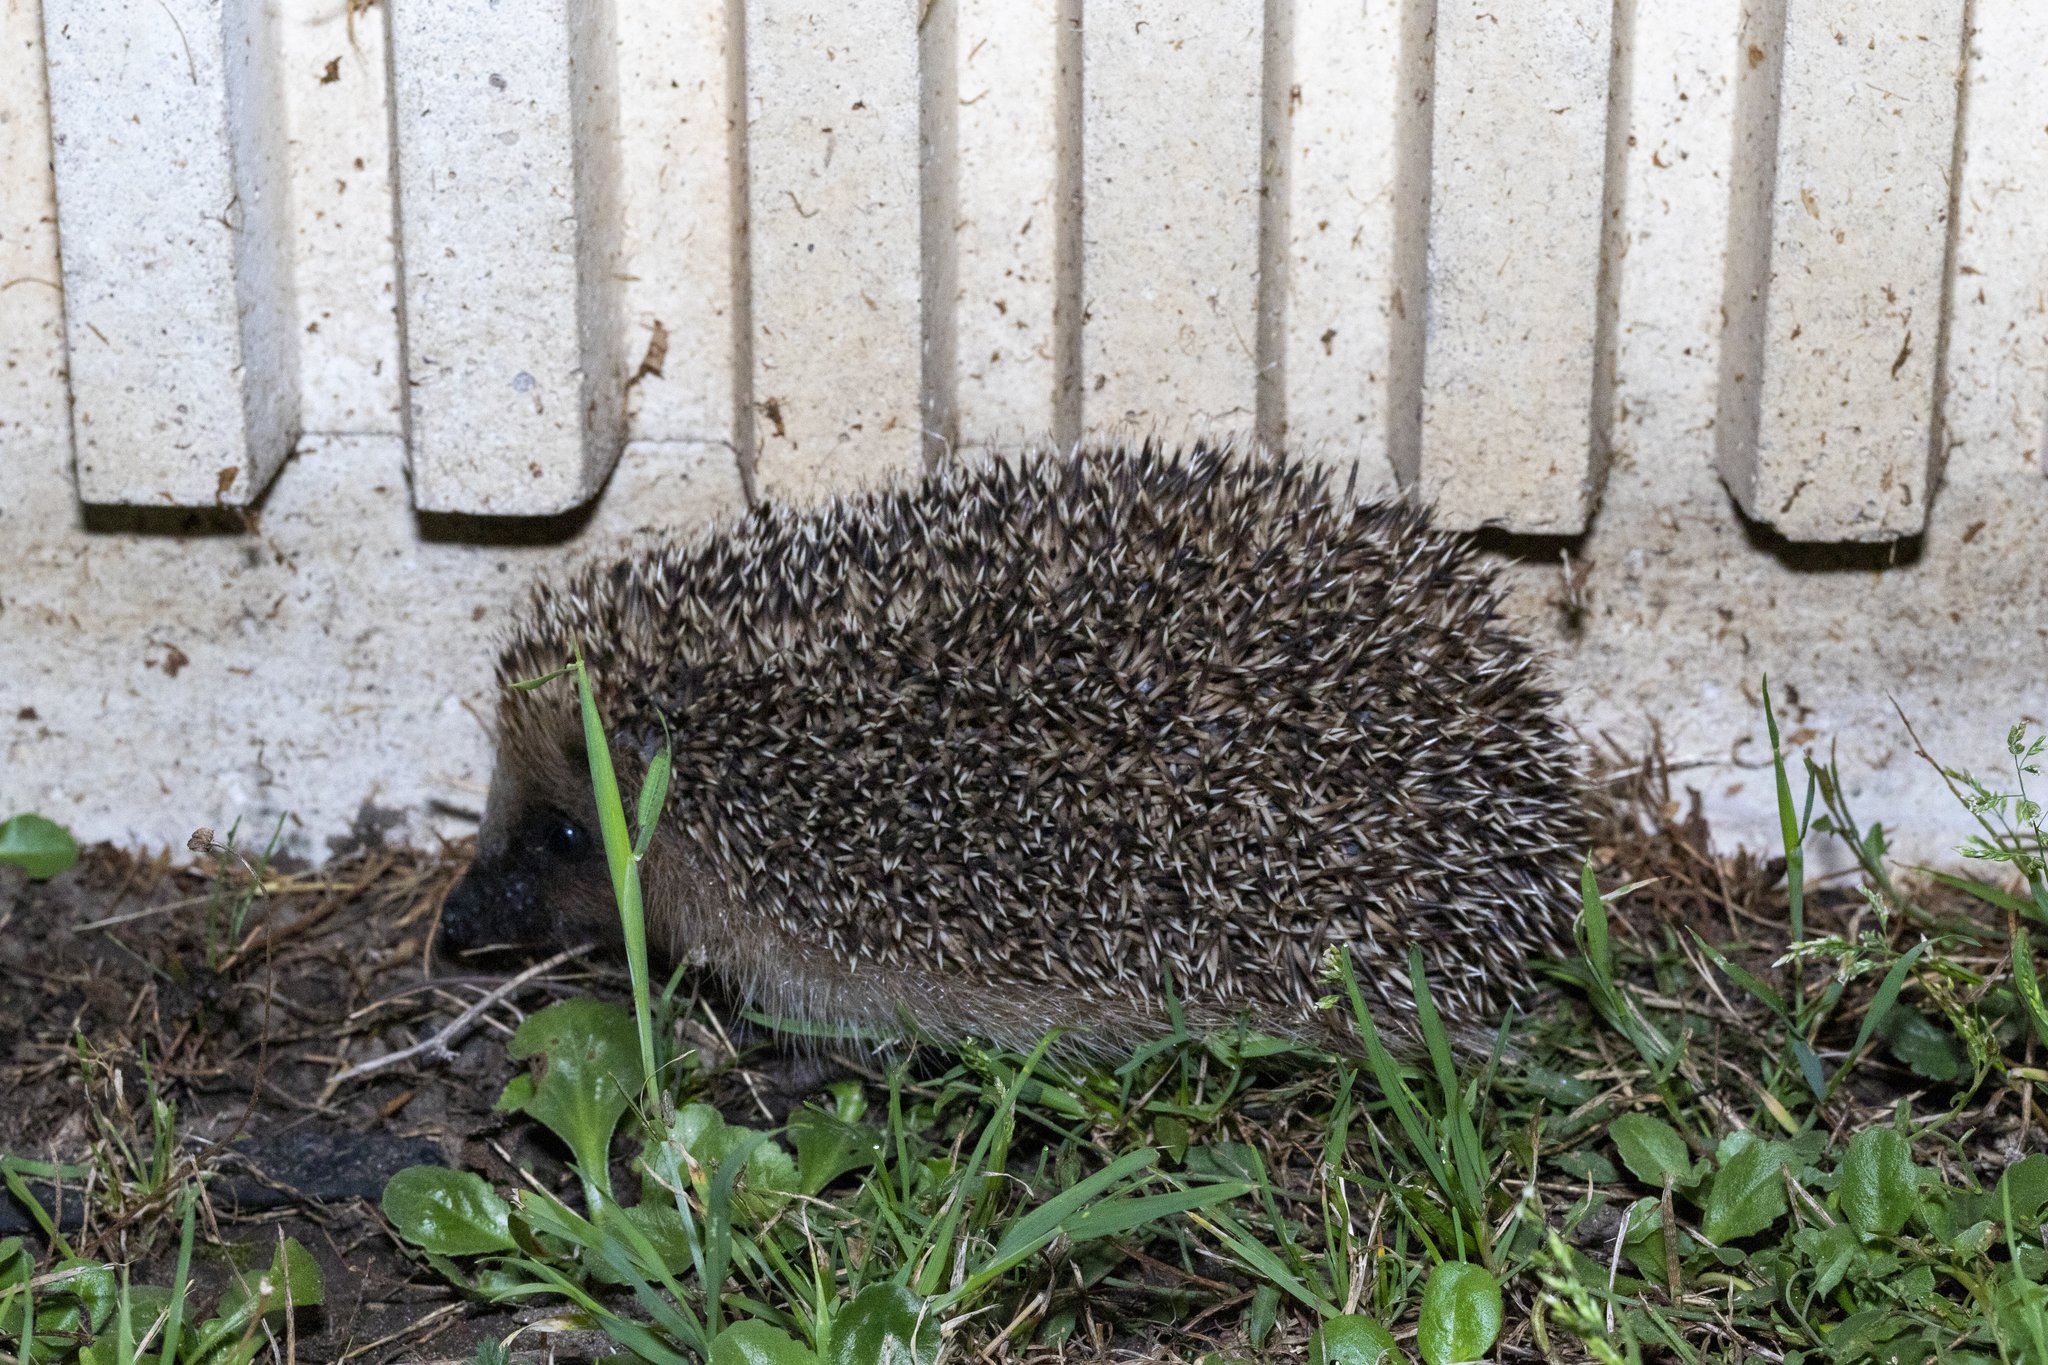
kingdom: Animalia
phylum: Chordata
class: Mammalia
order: Erinaceomorpha
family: Erinaceidae
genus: Erinaceus
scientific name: Erinaceus europaeus
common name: West european hedgehog
